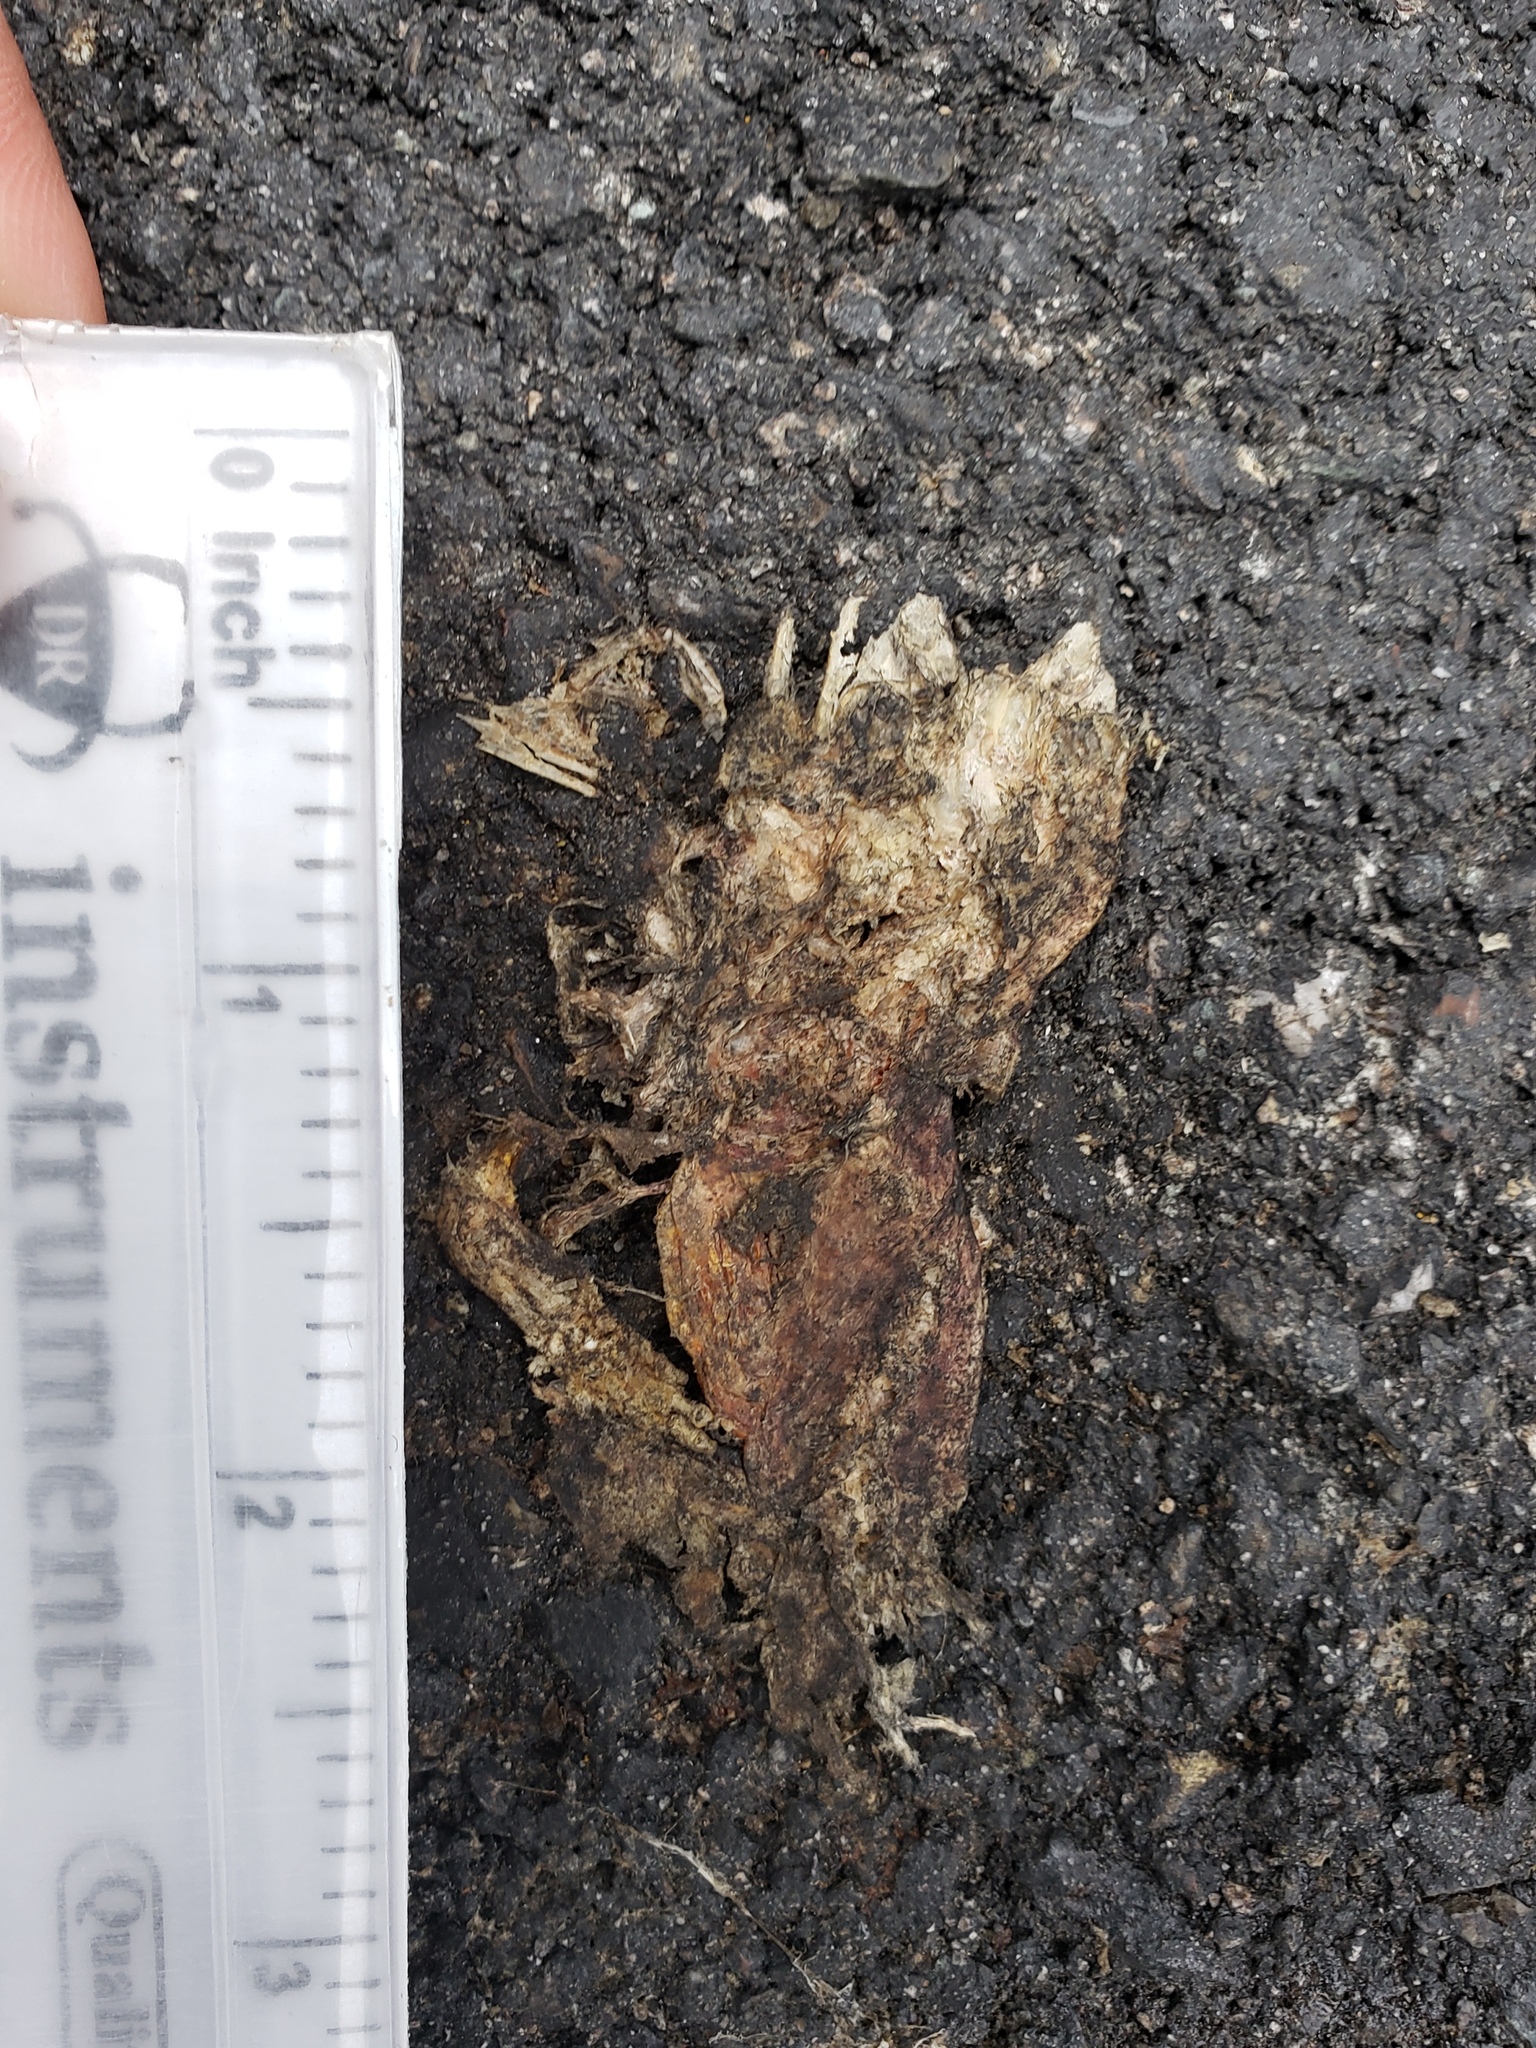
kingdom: Animalia
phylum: Chordata
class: Amphibia
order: Caudata
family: Salamandridae
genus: Taricha
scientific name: Taricha
